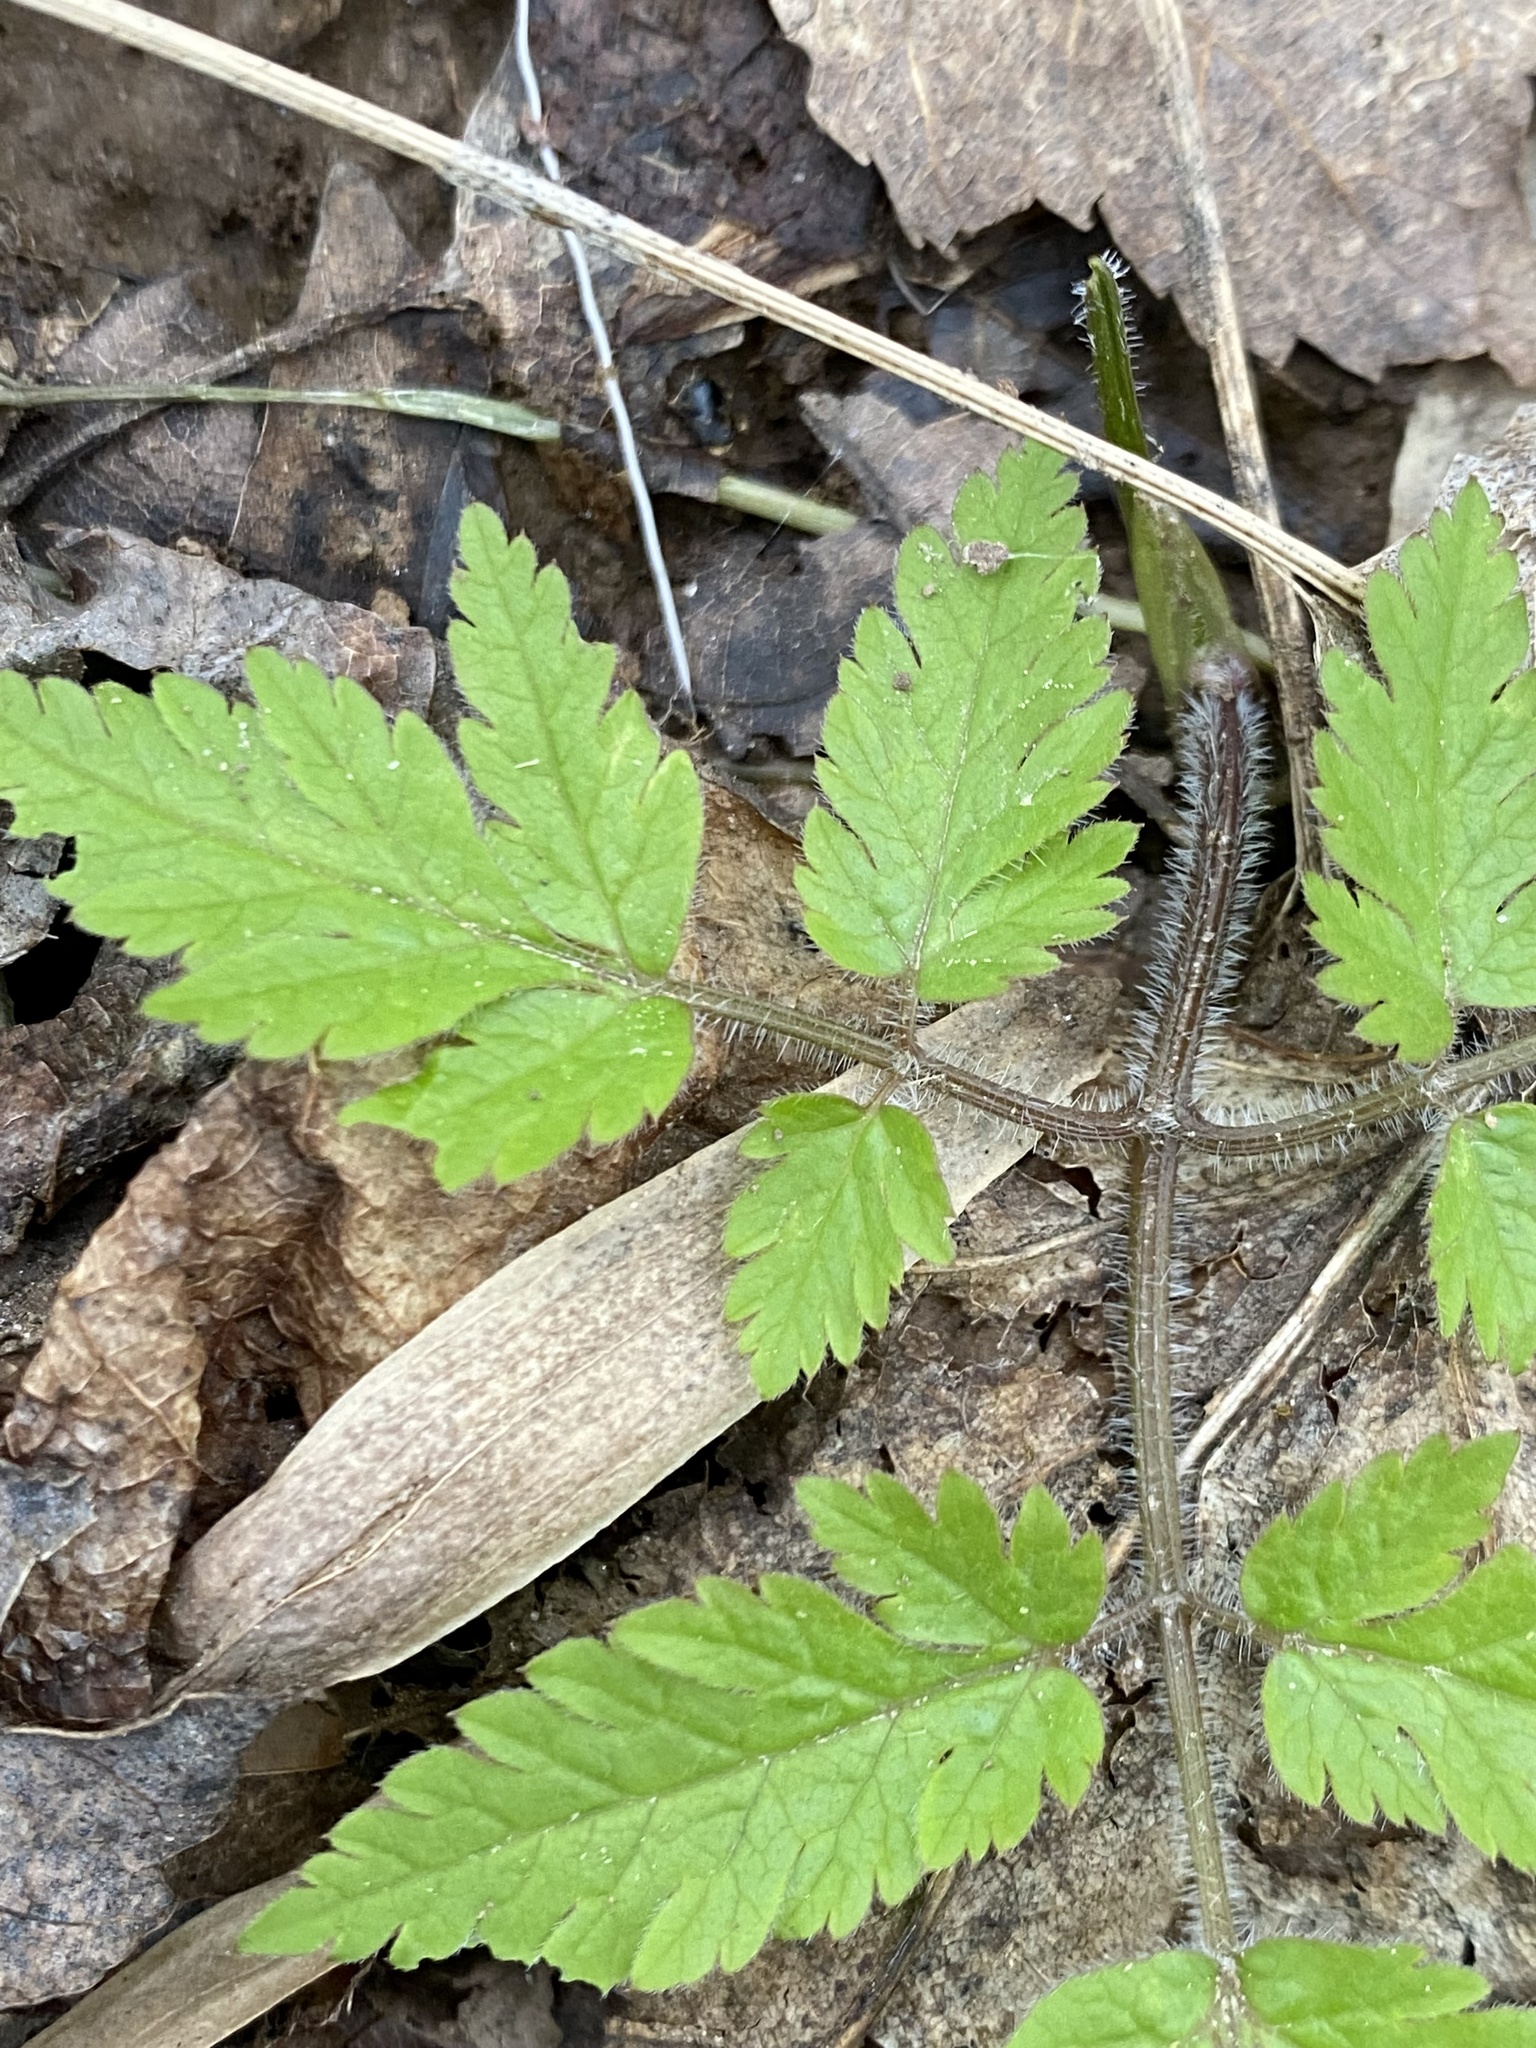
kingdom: Plantae
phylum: Tracheophyta
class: Magnoliopsida
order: Apiales
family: Apiaceae
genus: Osmorhiza
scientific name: Osmorhiza claytonii
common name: Hairy sweet cicely
